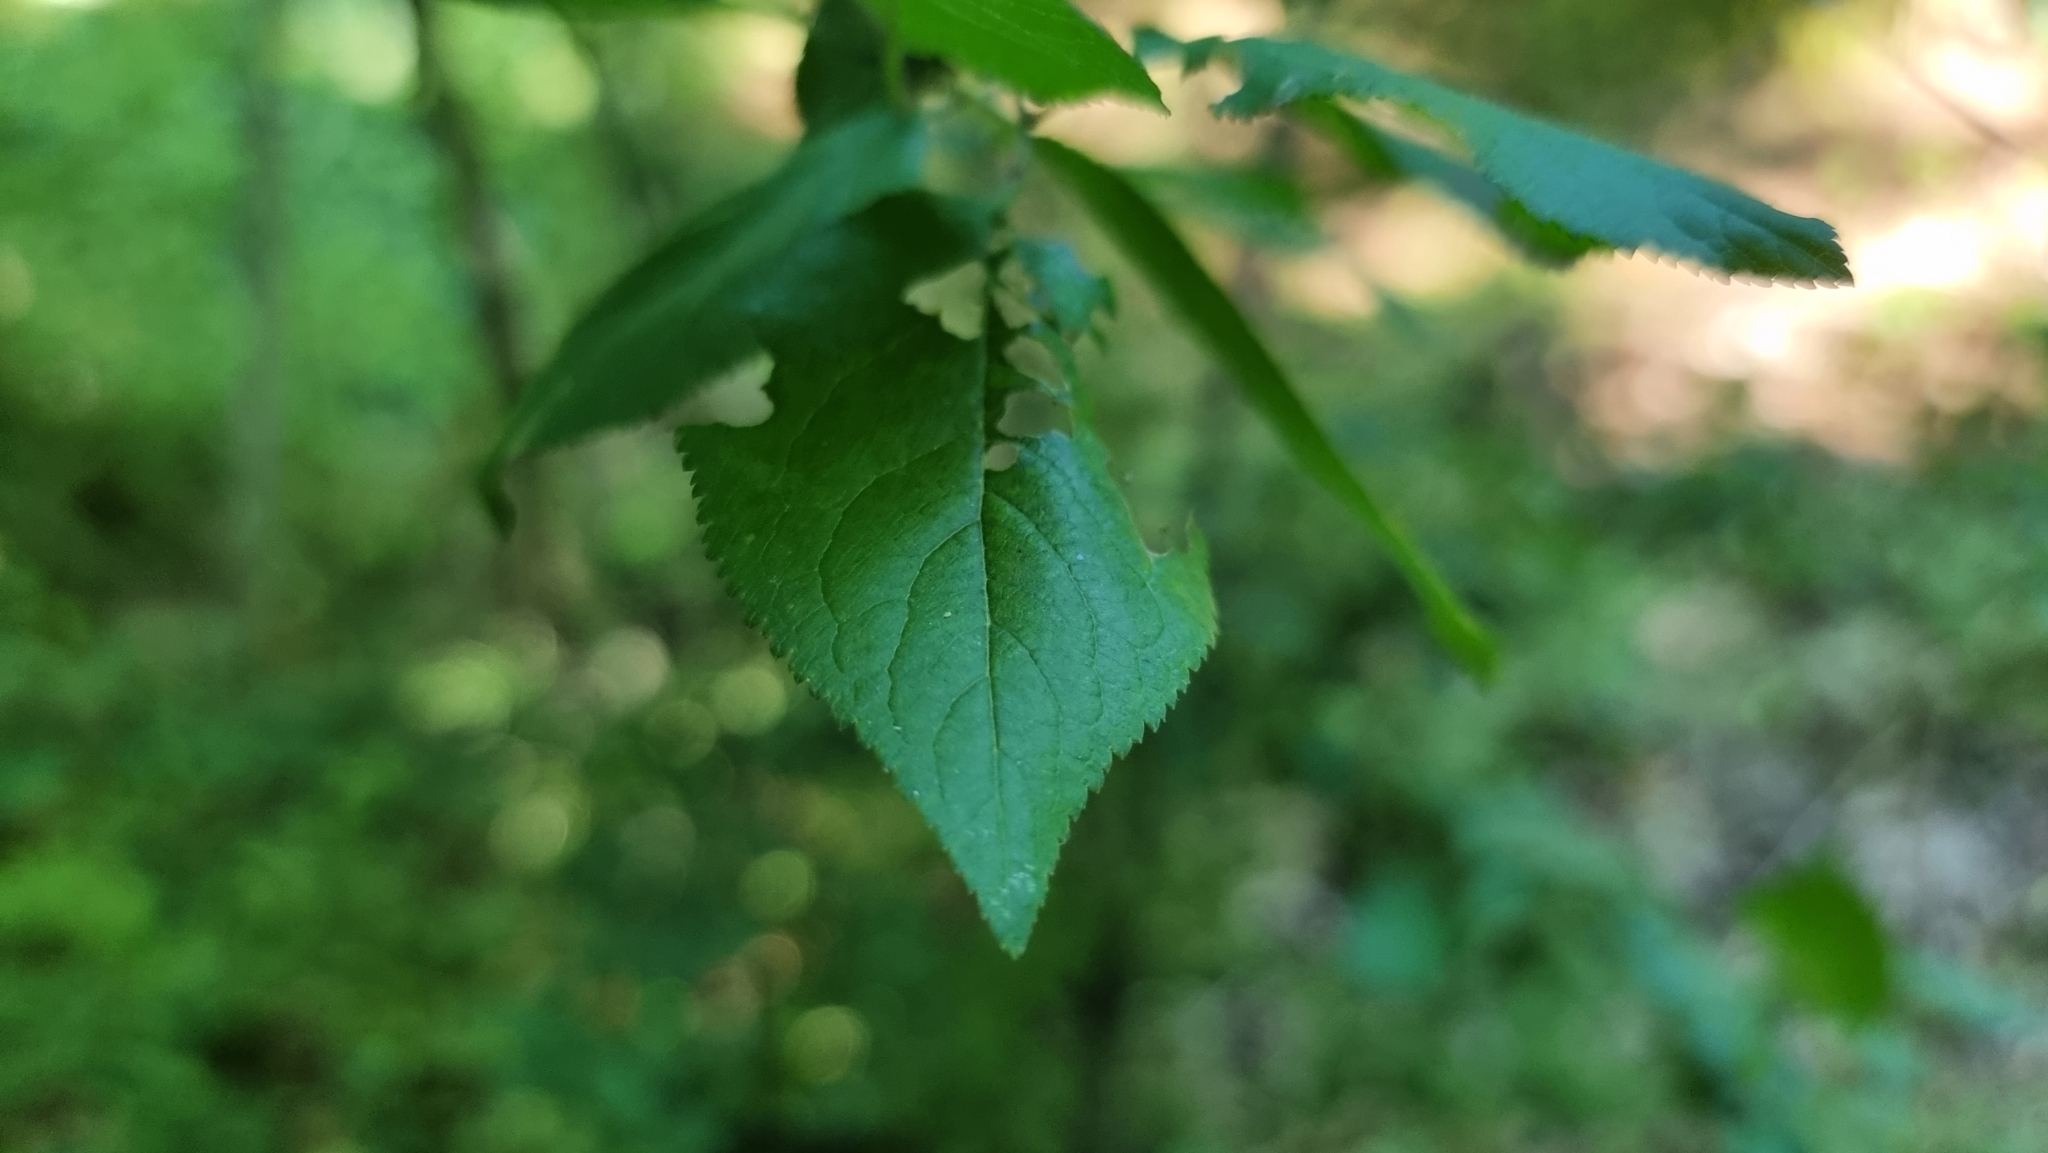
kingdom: Plantae
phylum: Tracheophyta
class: Magnoliopsida
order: Rosales
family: Rosaceae
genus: Prunus
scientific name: Prunus cerasifera
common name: Cherry plum
